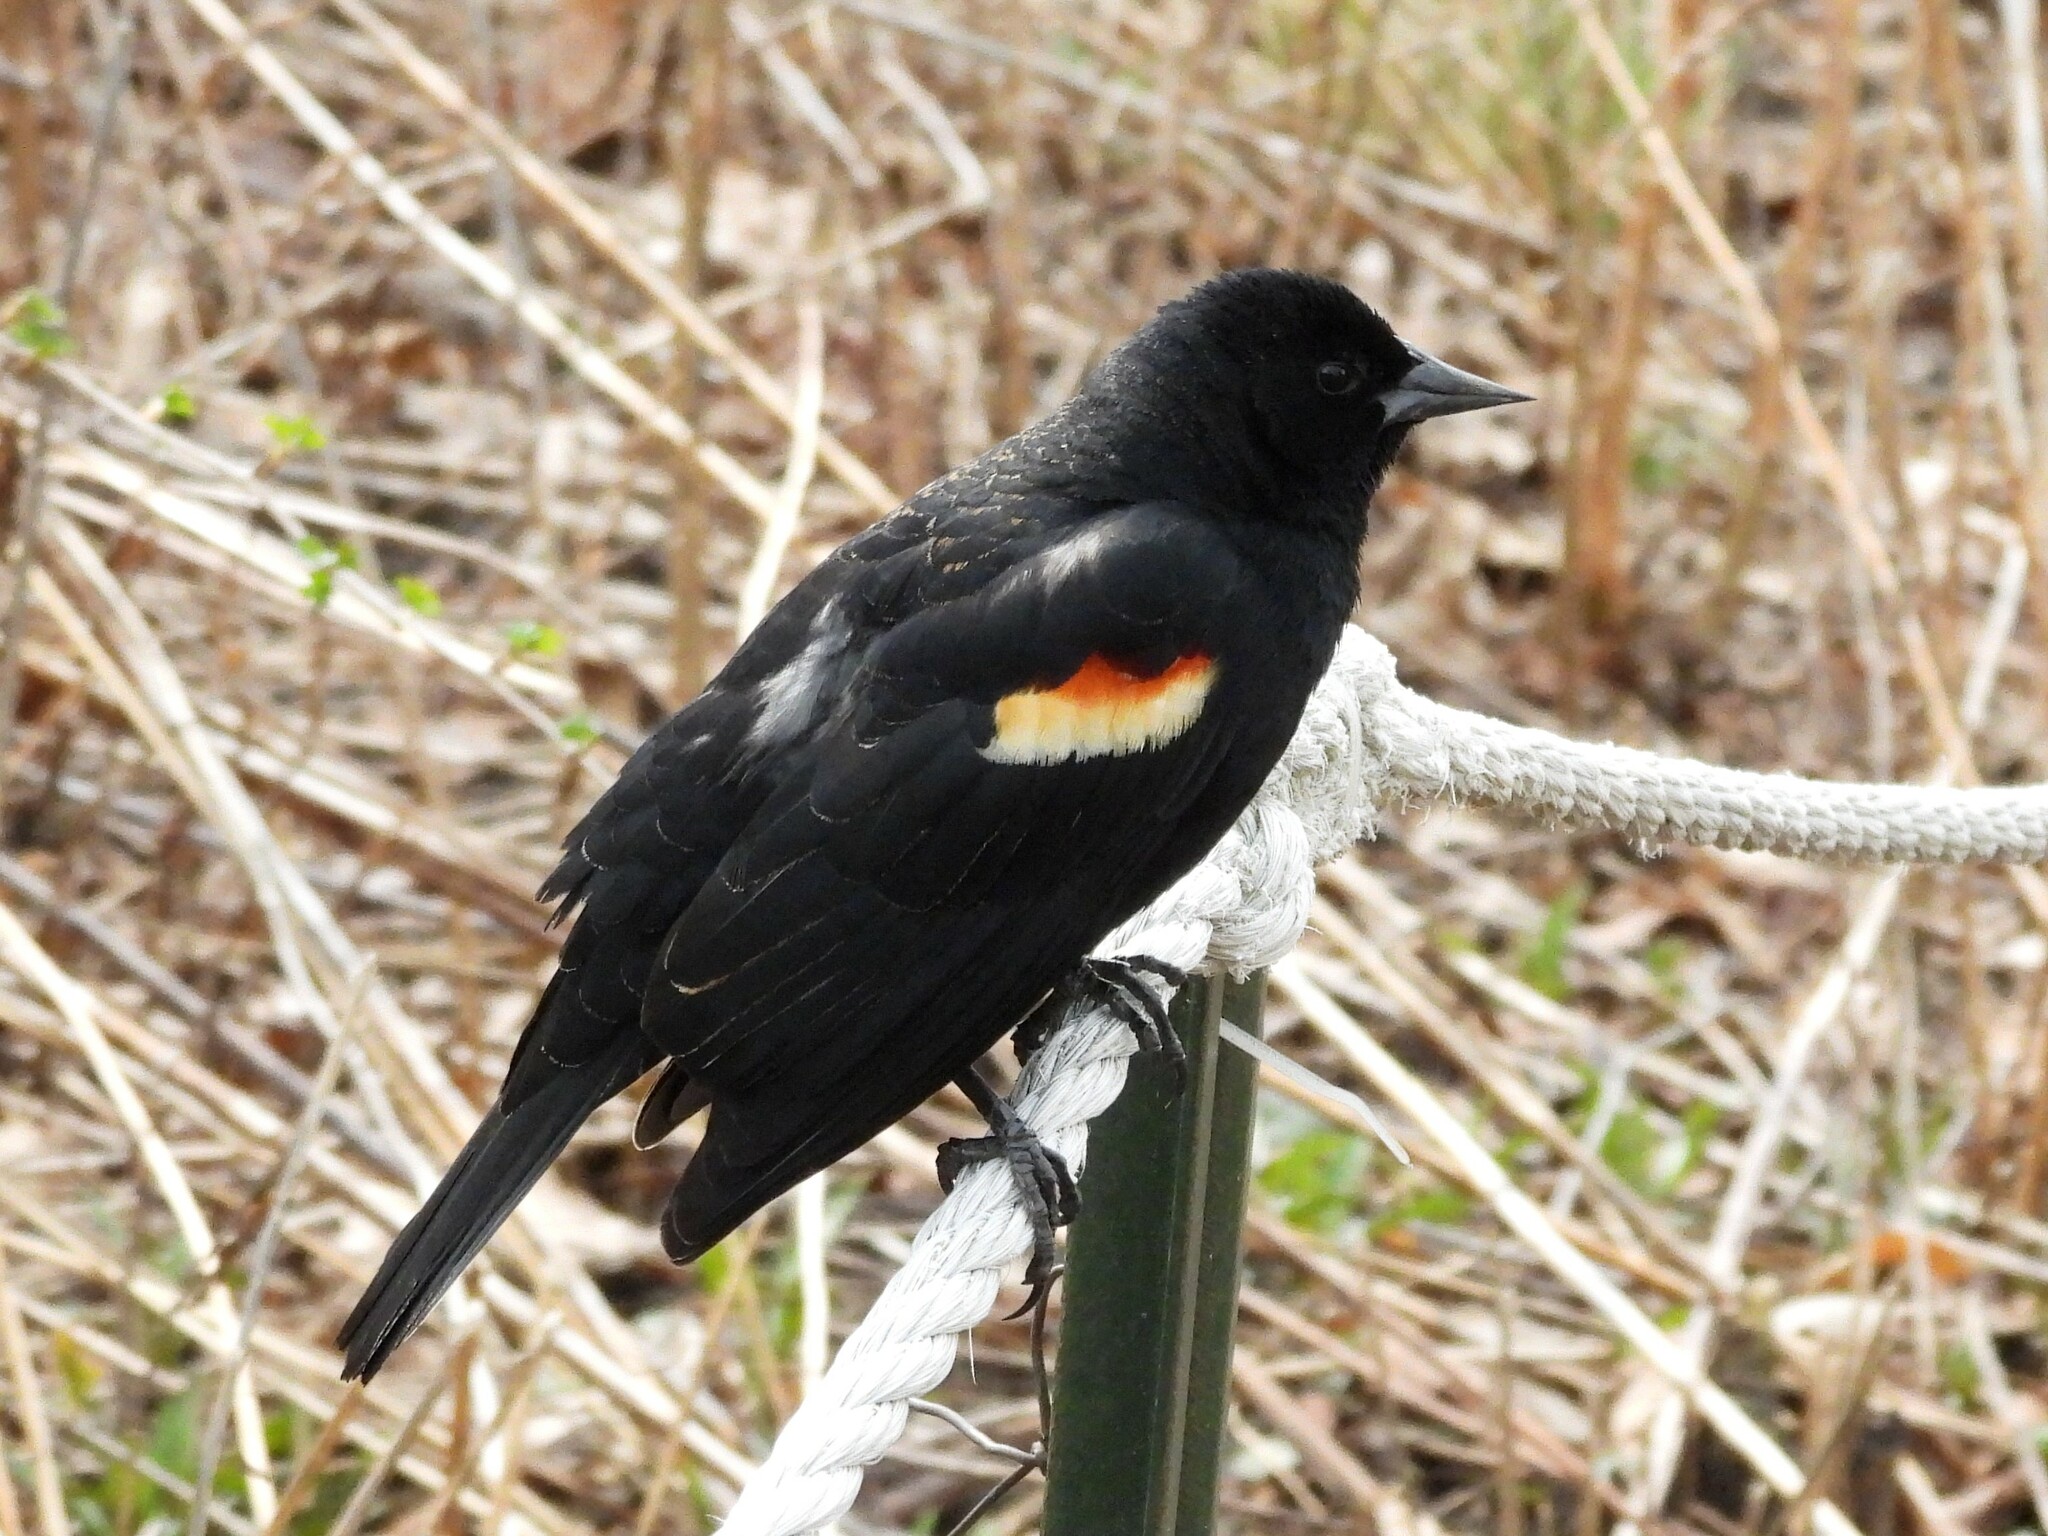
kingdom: Animalia
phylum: Chordata
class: Aves
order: Passeriformes
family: Icteridae
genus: Agelaius
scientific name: Agelaius phoeniceus
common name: Red-winged blackbird
